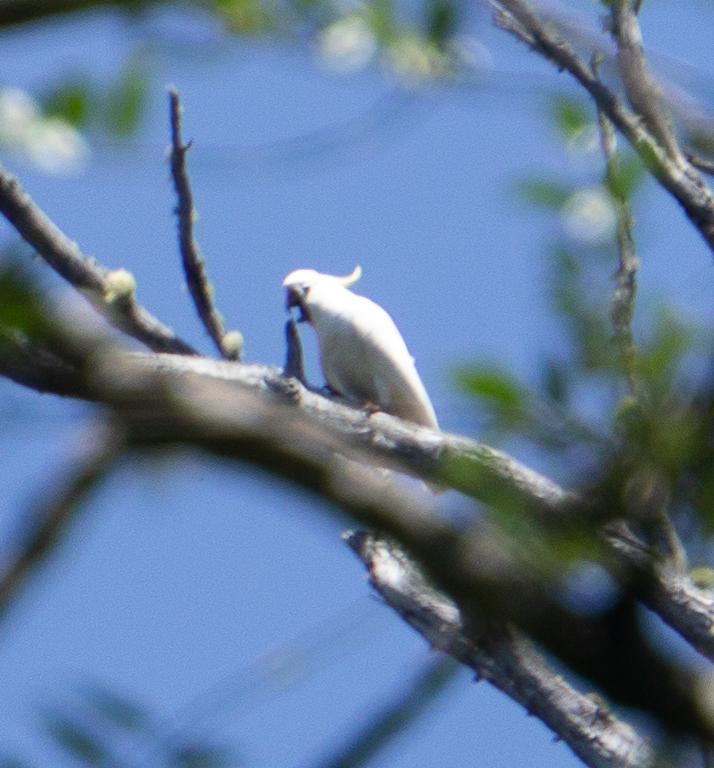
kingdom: Animalia
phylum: Chordata
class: Aves
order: Psittaciformes
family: Psittacidae
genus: Cacatua
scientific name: Cacatua galerita
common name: Sulphur-crested cockatoo
